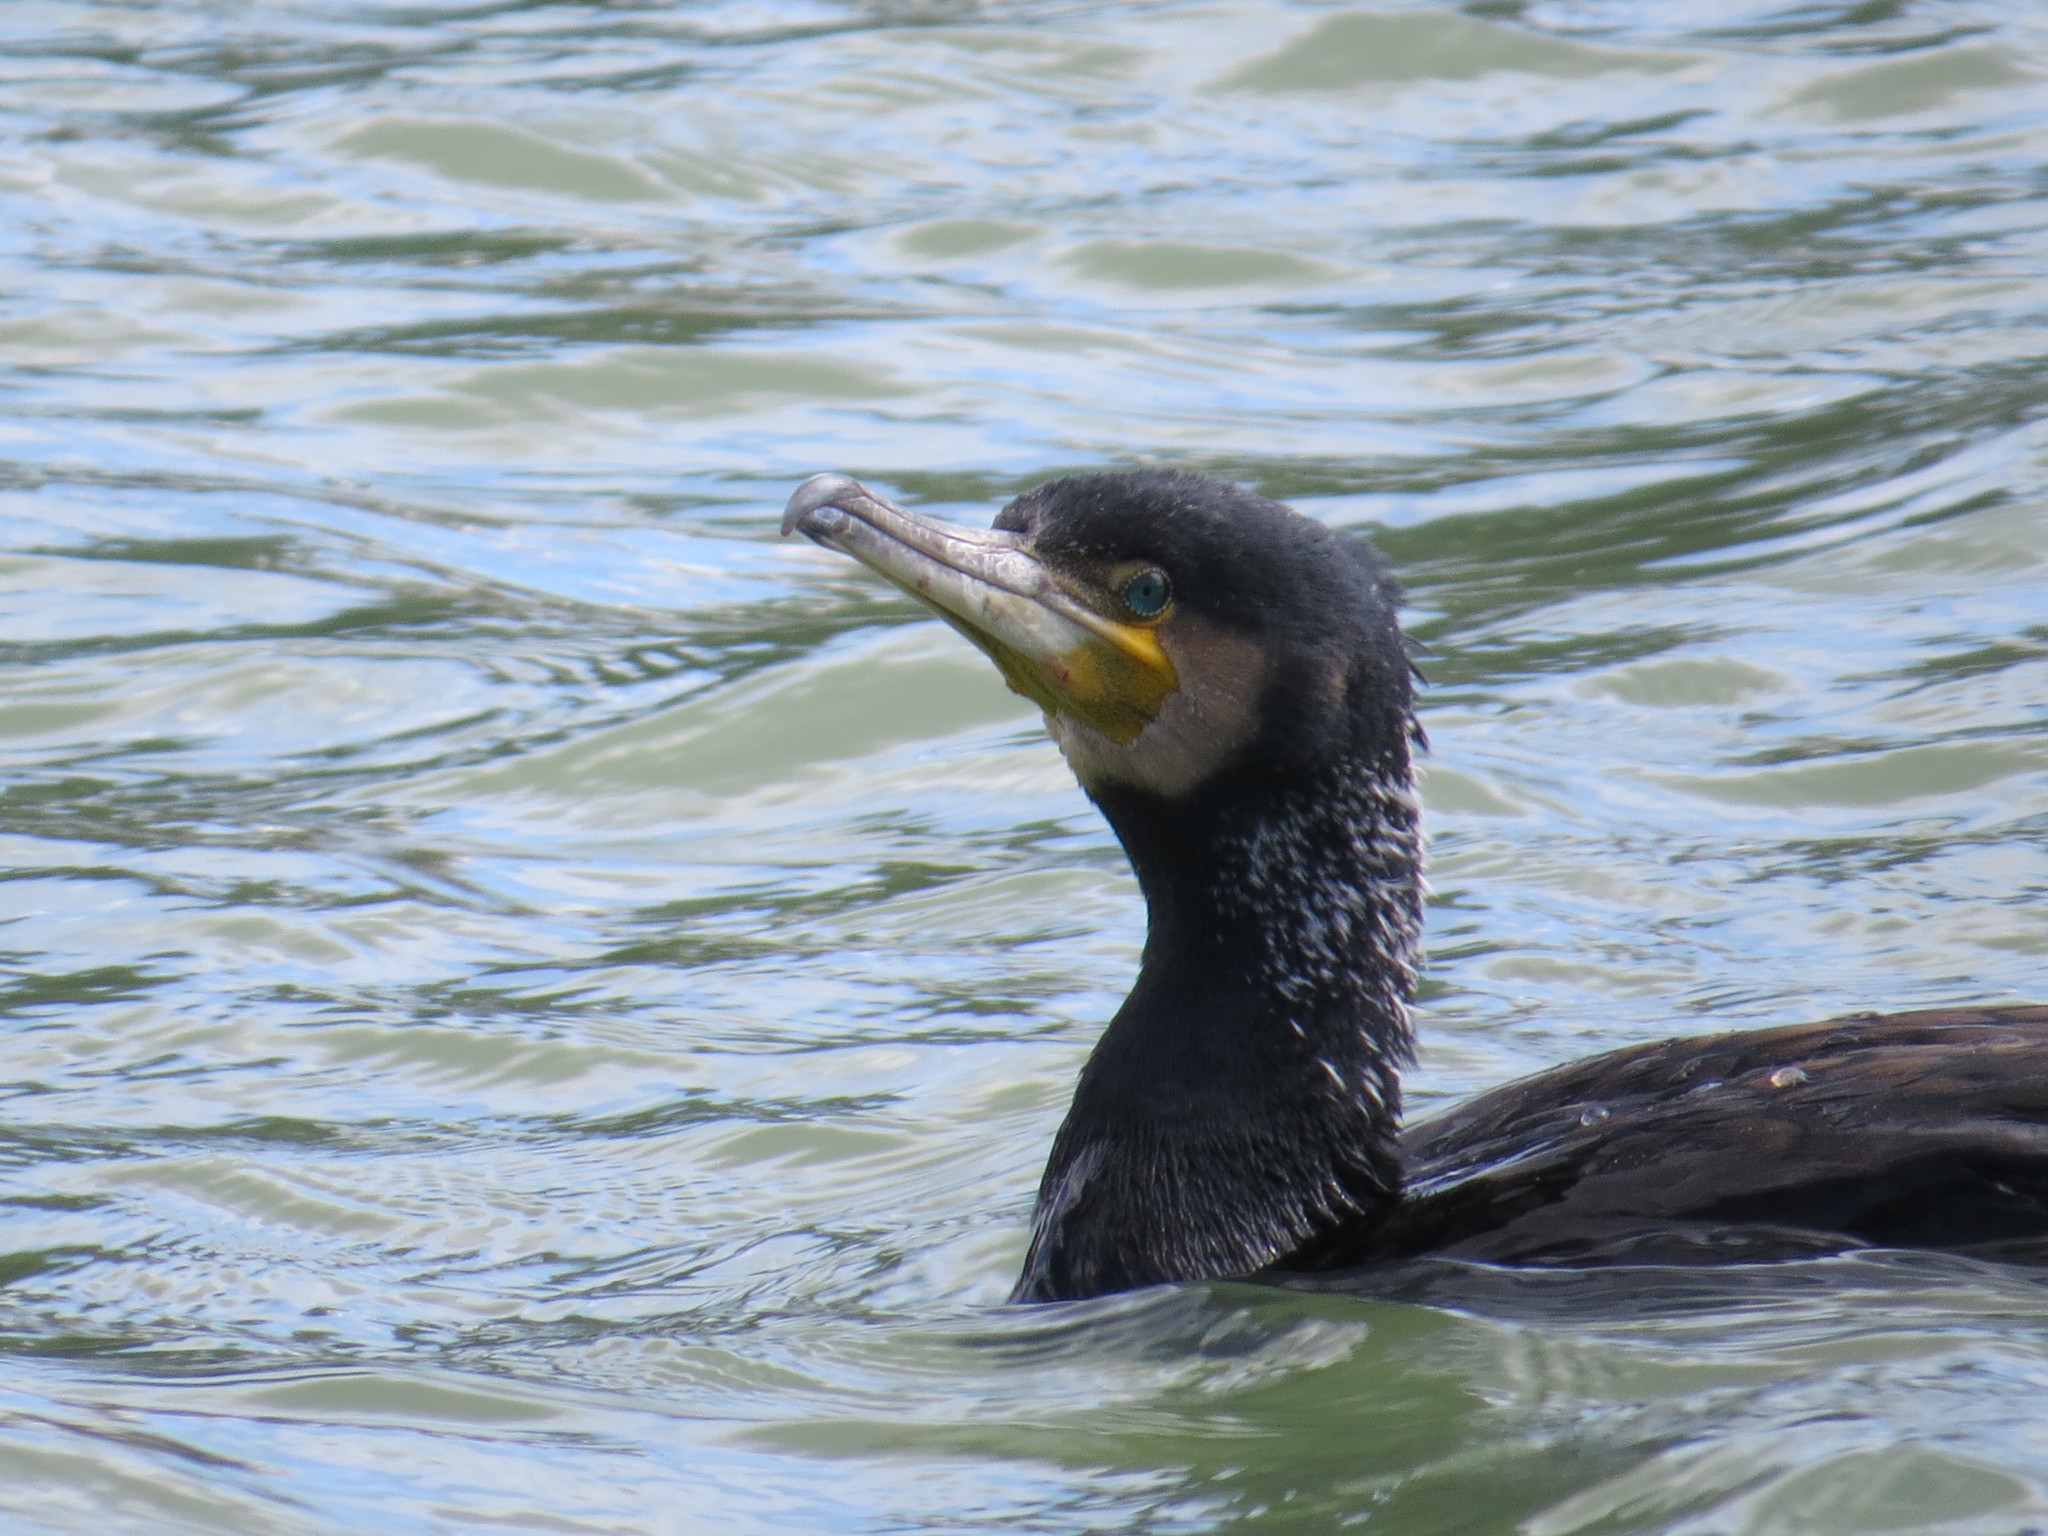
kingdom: Animalia
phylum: Chordata
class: Aves
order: Suliformes
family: Phalacrocoracidae
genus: Phalacrocorax
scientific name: Phalacrocorax carbo
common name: Great cormorant
